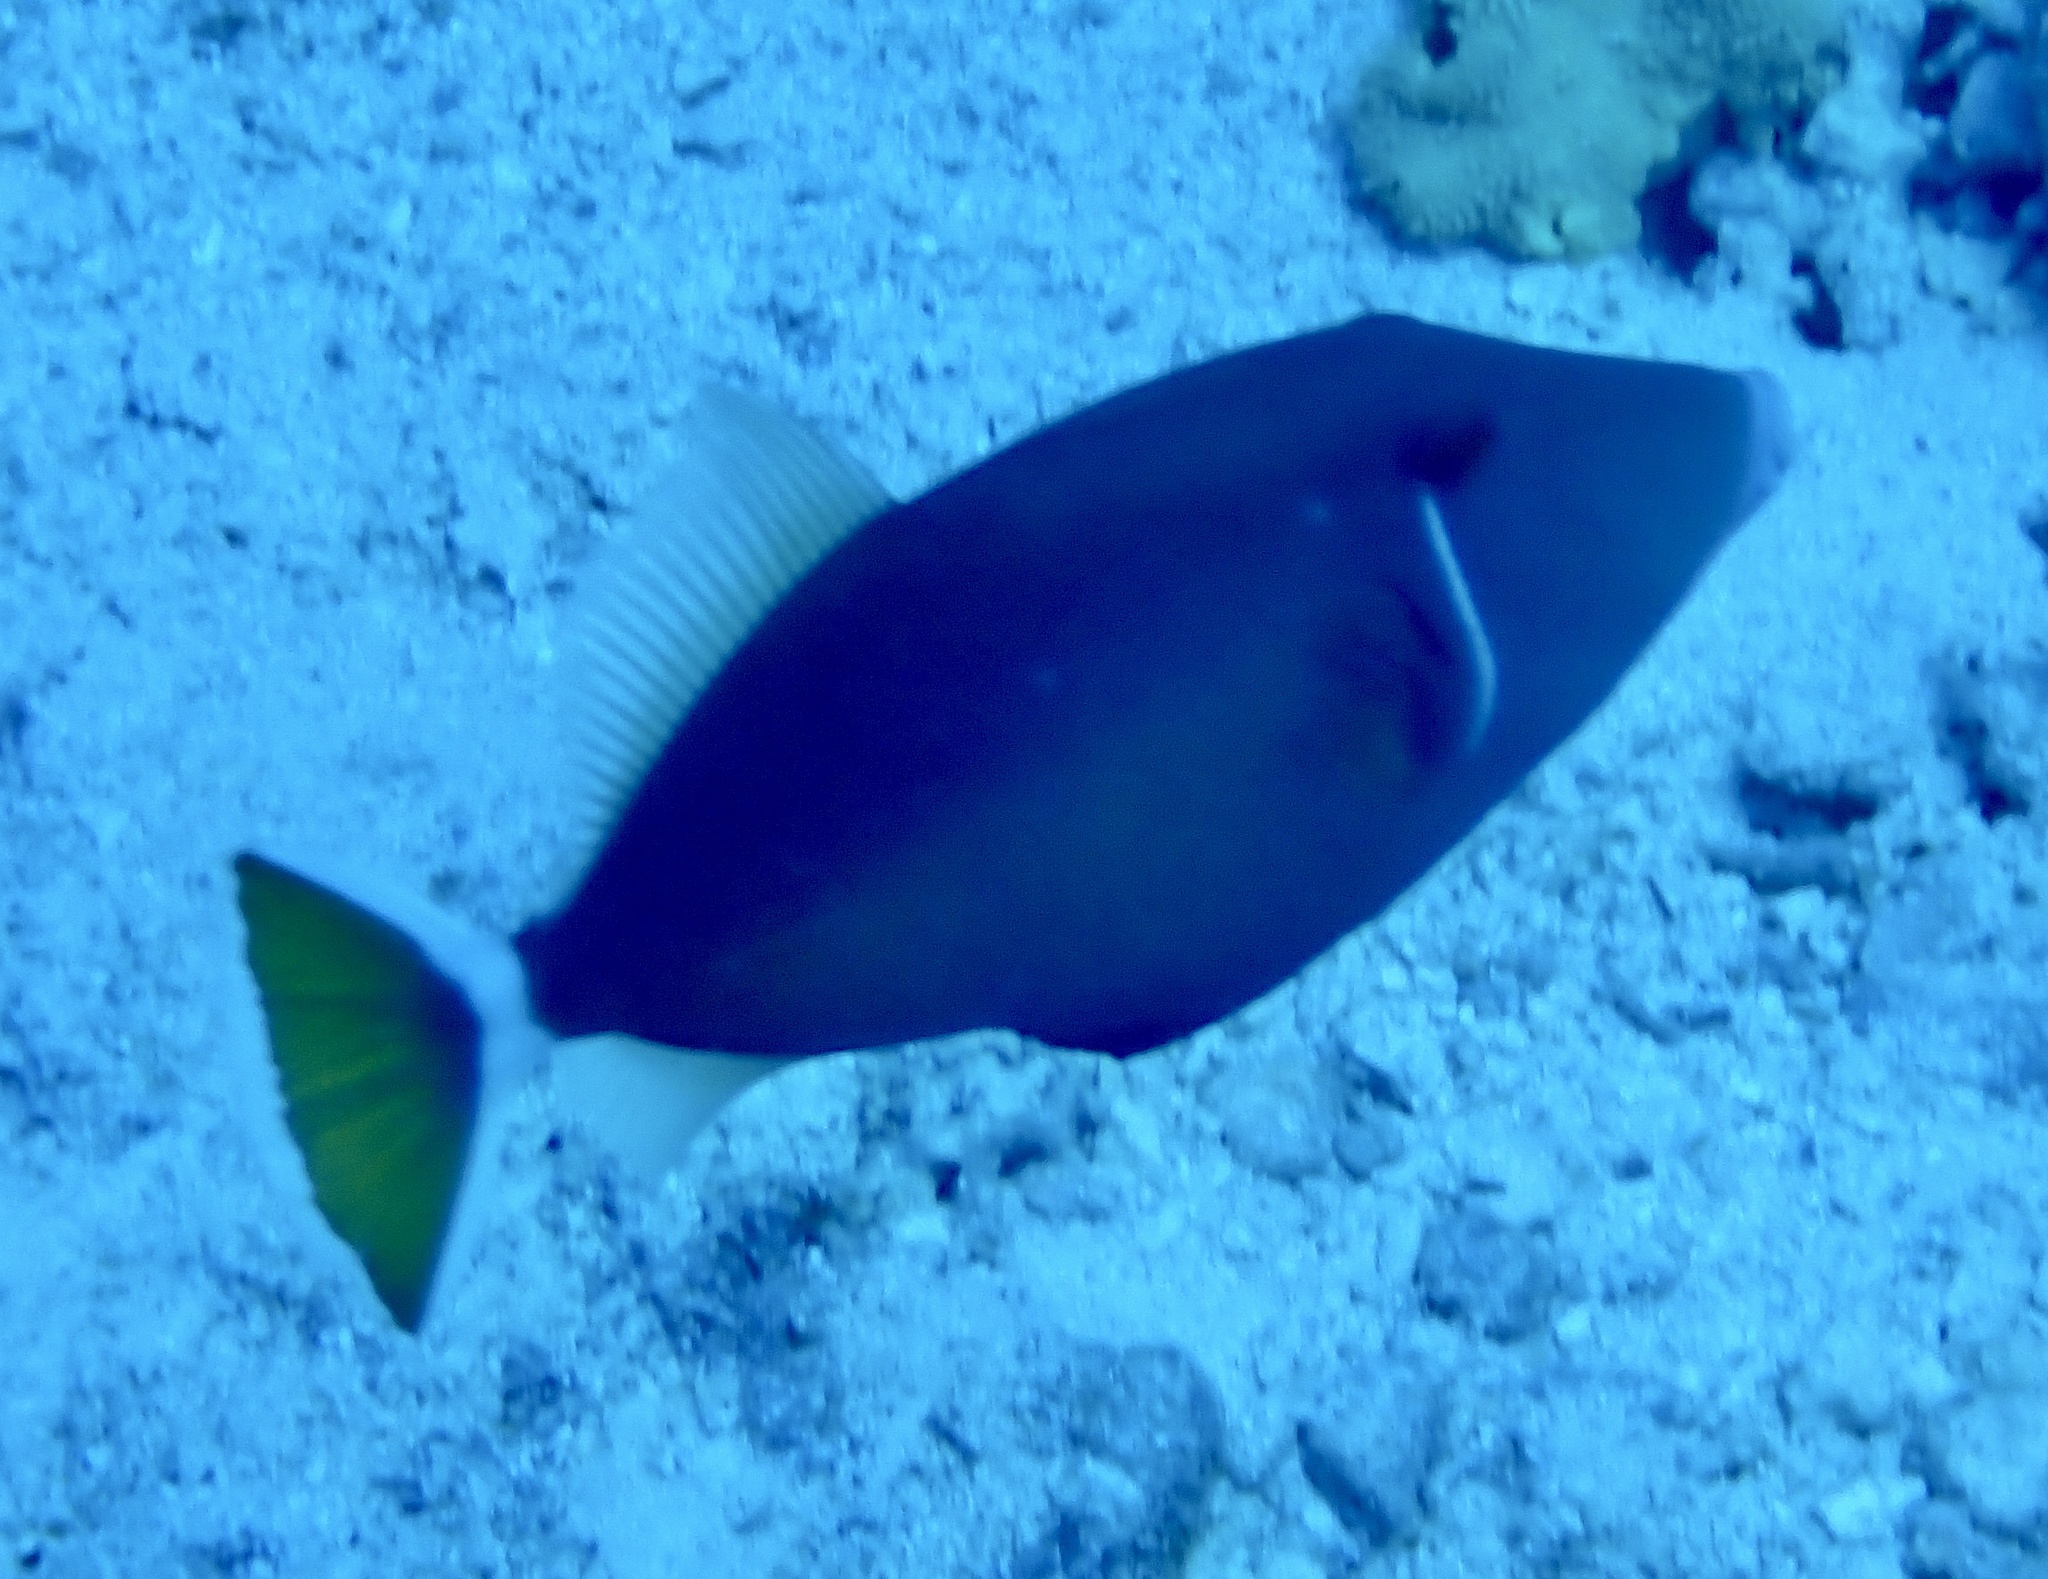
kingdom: Animalia
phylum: Chordata
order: Tetraodontiformes
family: Balistidae
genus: Sufflamen
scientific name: Sufflamen albicaudatum
